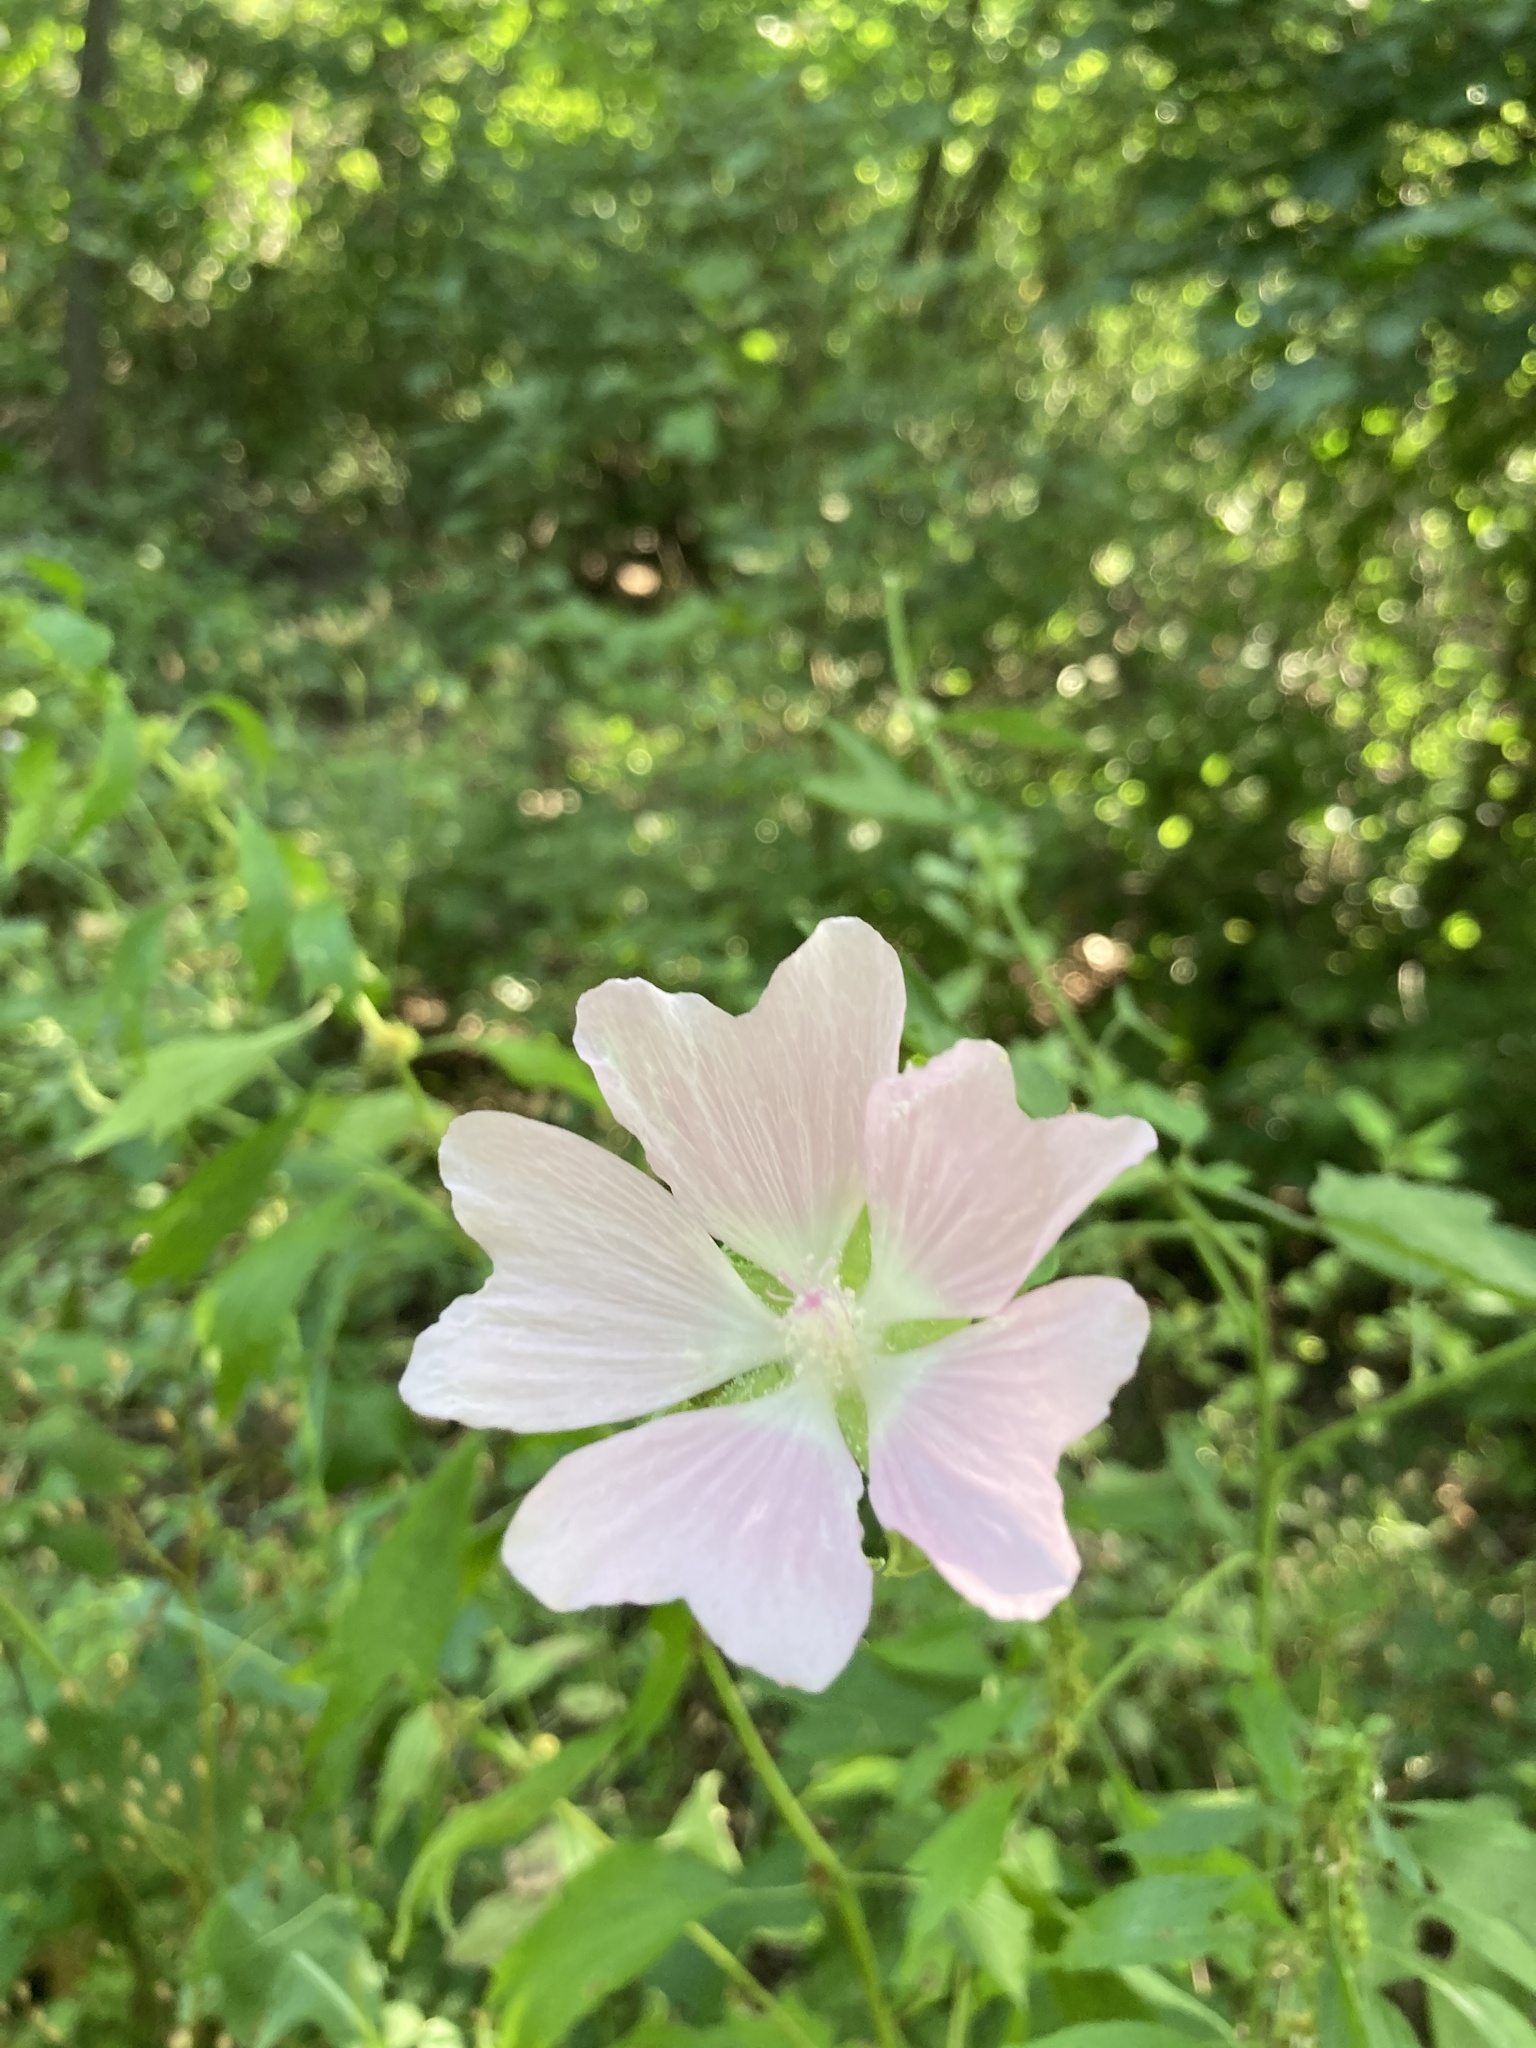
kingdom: Plantae
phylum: Tracheophyta
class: Magnoliopsida
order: Malvales
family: Malvaceae
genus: Malva
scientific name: Malva thuringiaca
